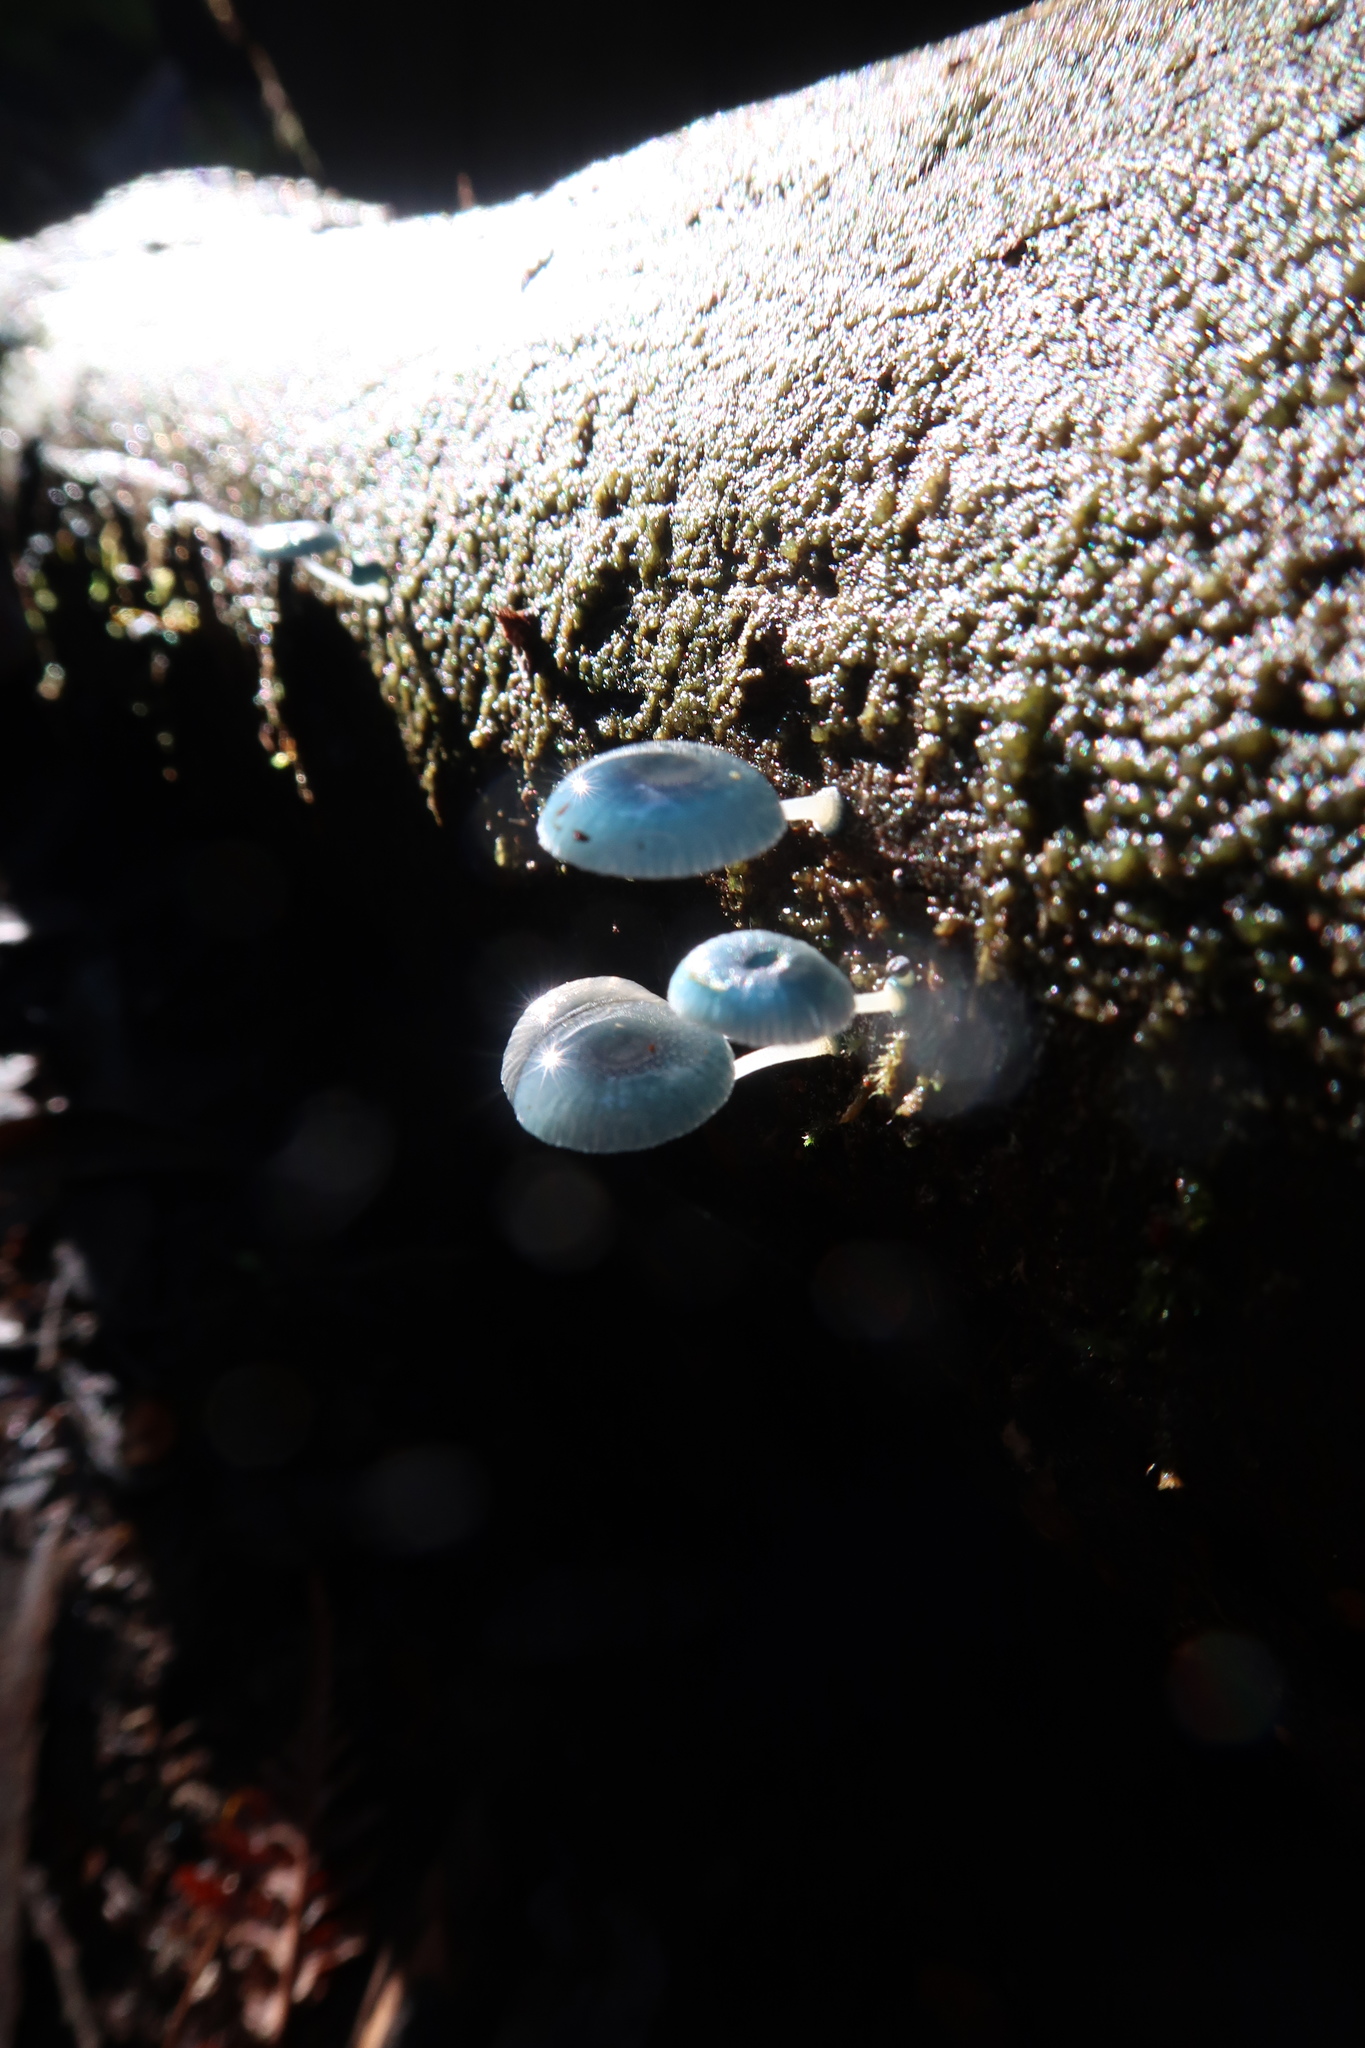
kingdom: Fungi
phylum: Basidiomycota
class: Agaricomycetes
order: Agaricales
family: Mycenaceae
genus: Mycena
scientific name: Mycena interrupta
